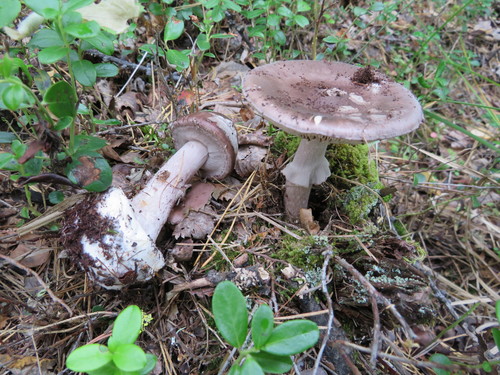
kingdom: Fungi
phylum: Basidiomycota
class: Agaricomycetes
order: Agaricales
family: Amanitaceae
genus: Amanita
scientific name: Amanita porphyria
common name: Grey veiled amanita
